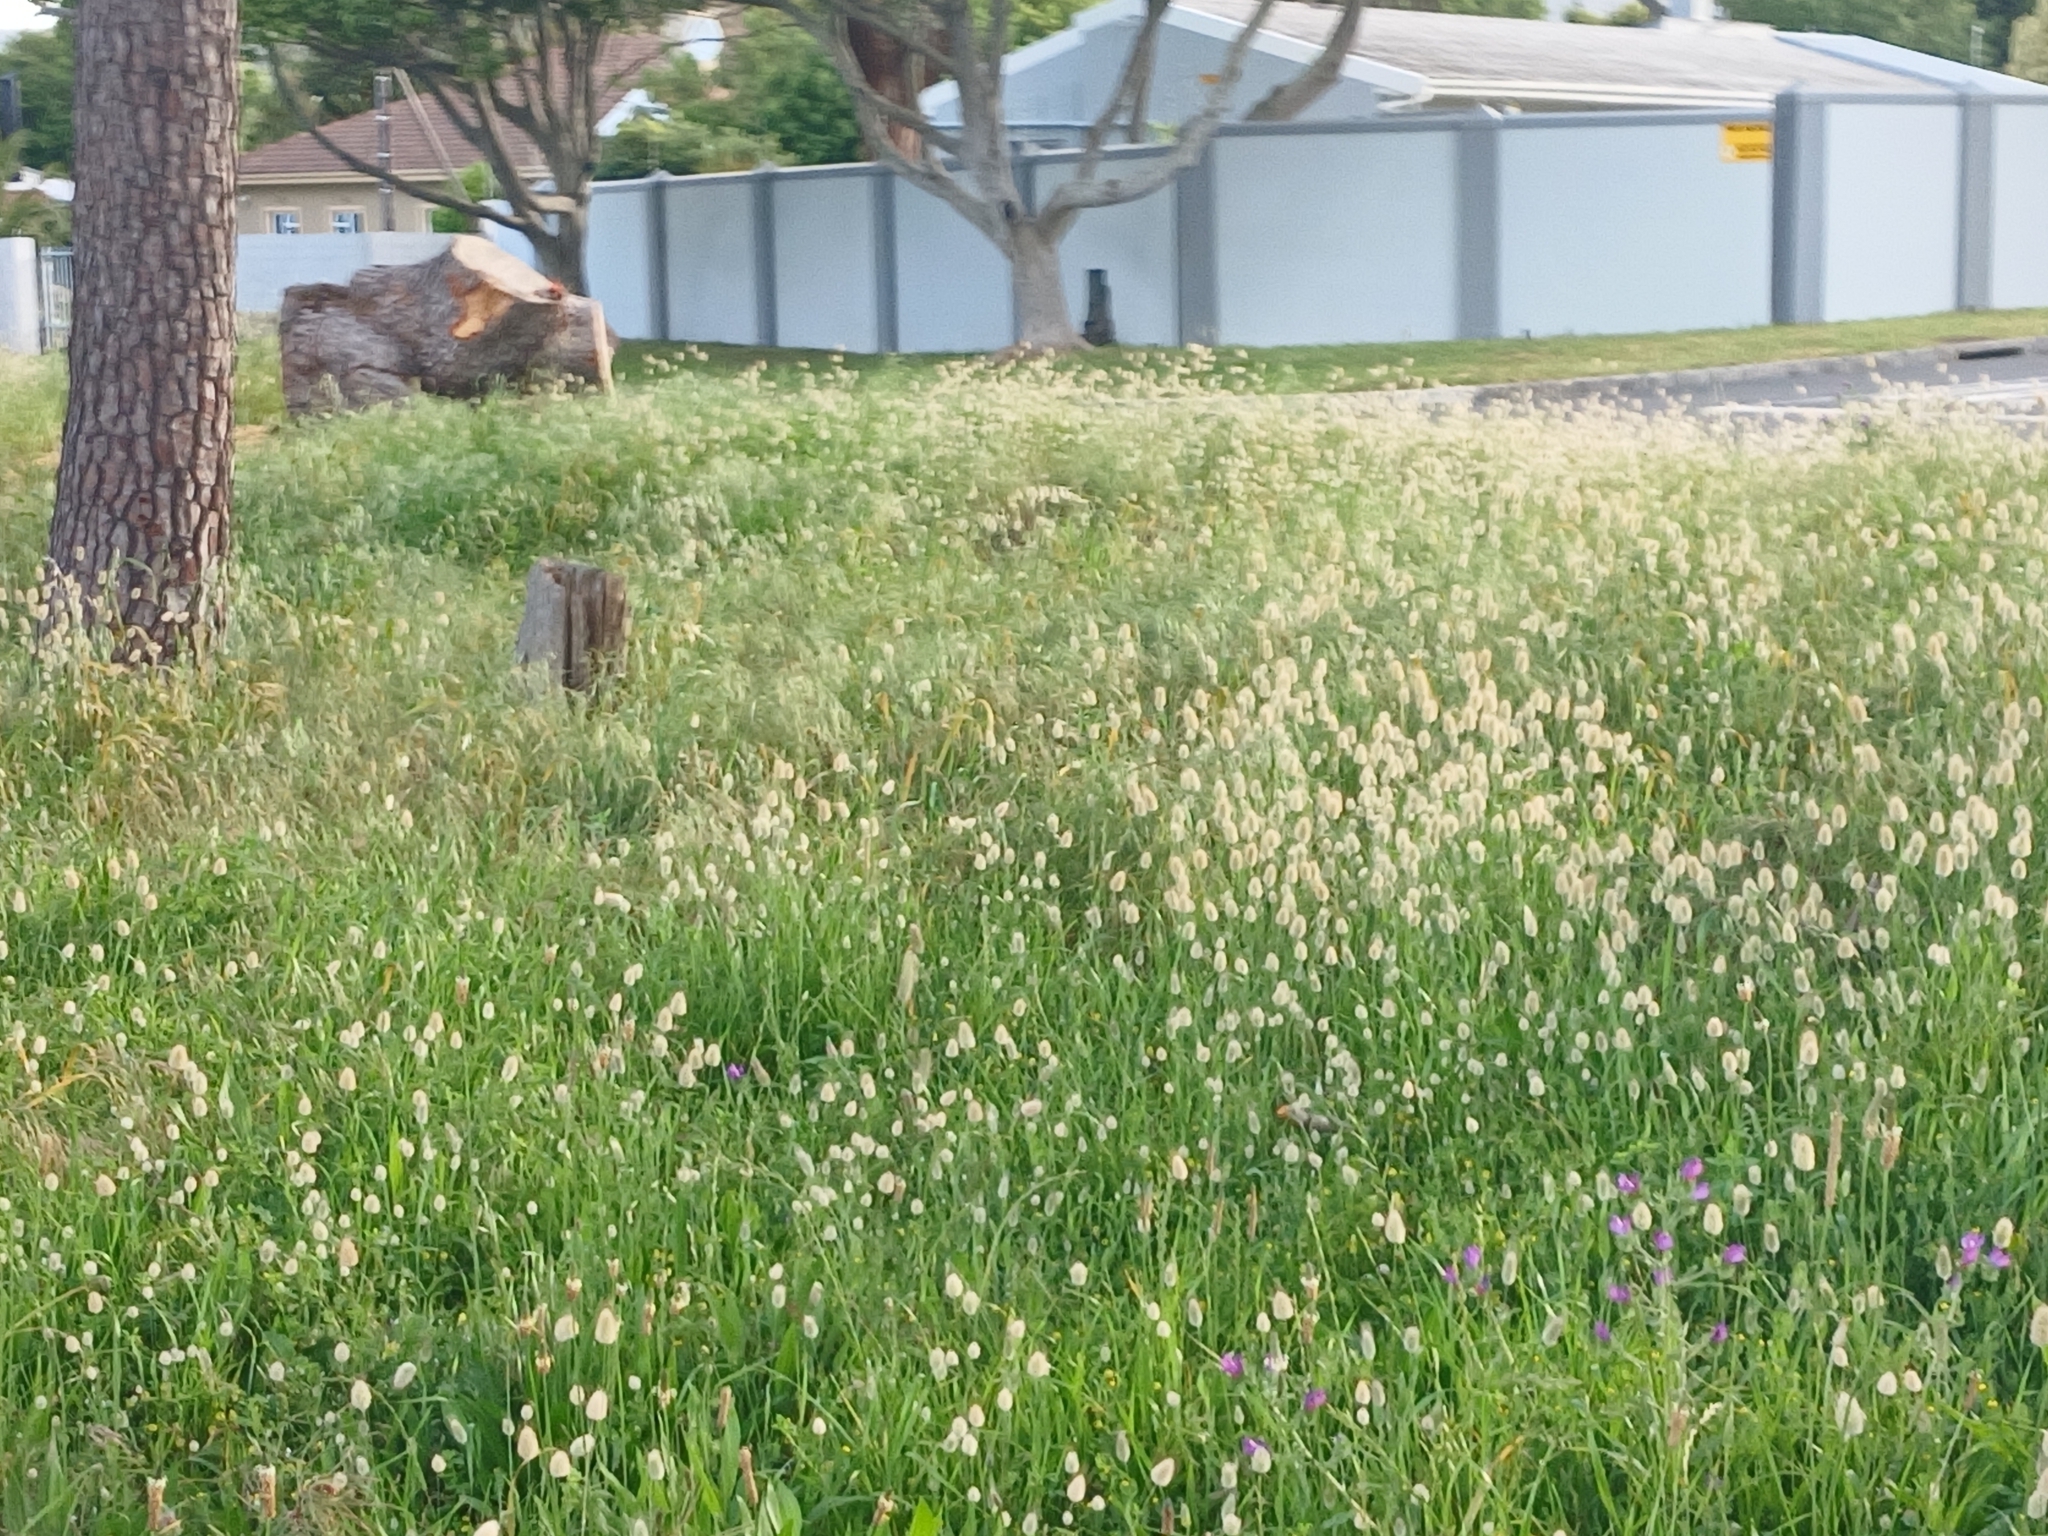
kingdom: Plantae
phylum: Tracheophyta
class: Liliopsida
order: Poales
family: Poaceae
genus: Lagurus
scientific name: Lagurus ovatus
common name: Hare's-tail
